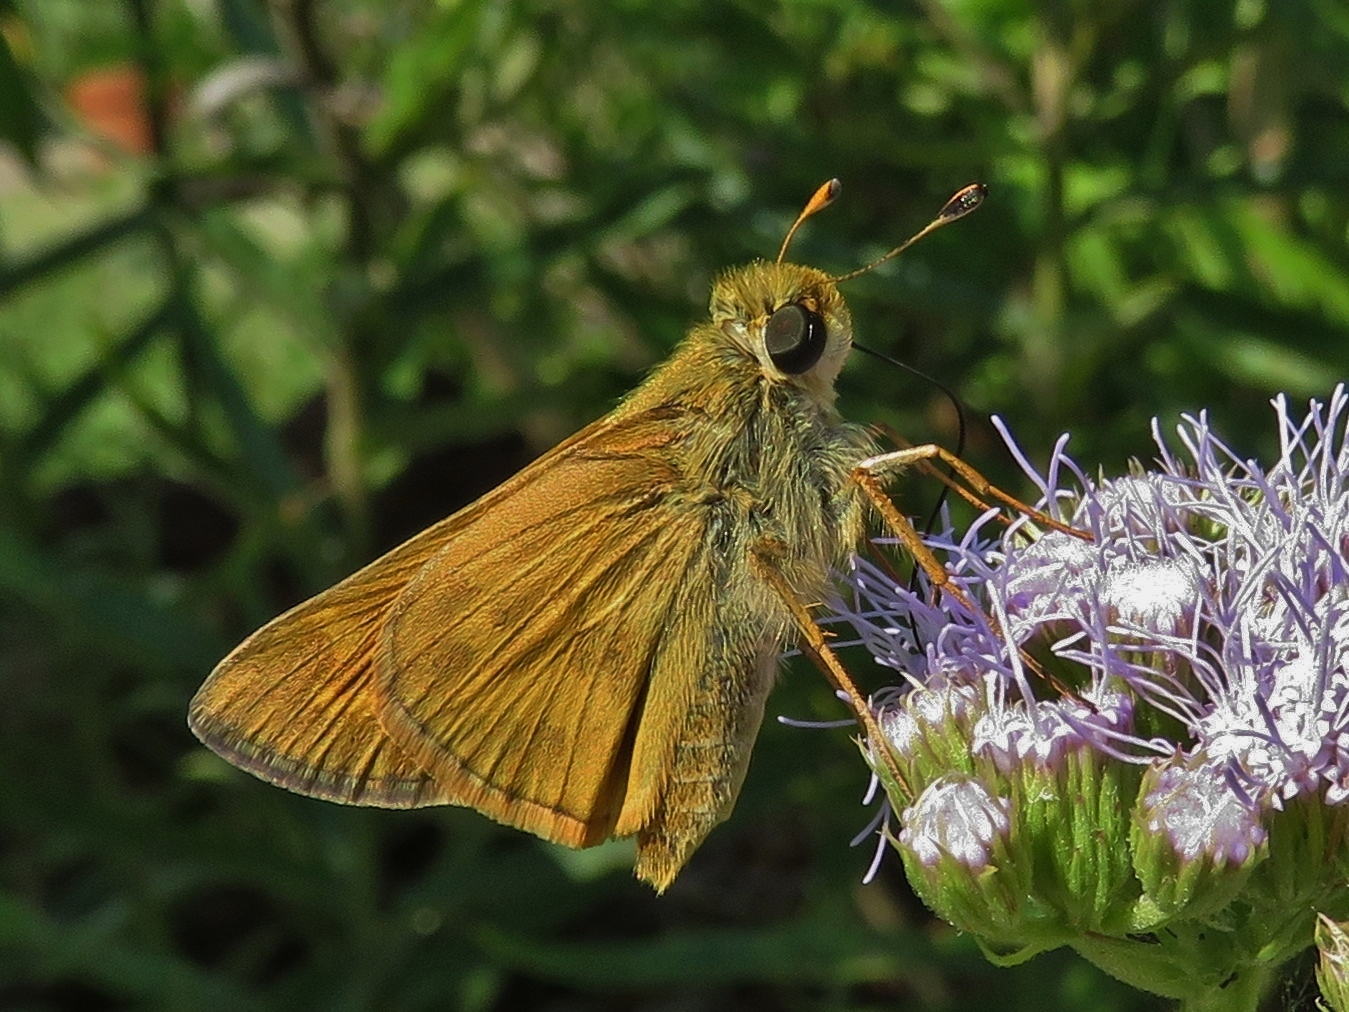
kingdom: Animalia
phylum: Arthropoda
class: Insecta
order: Lepidoptera
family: Hesperiidae
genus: Atalopedes
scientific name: Atalopedes
